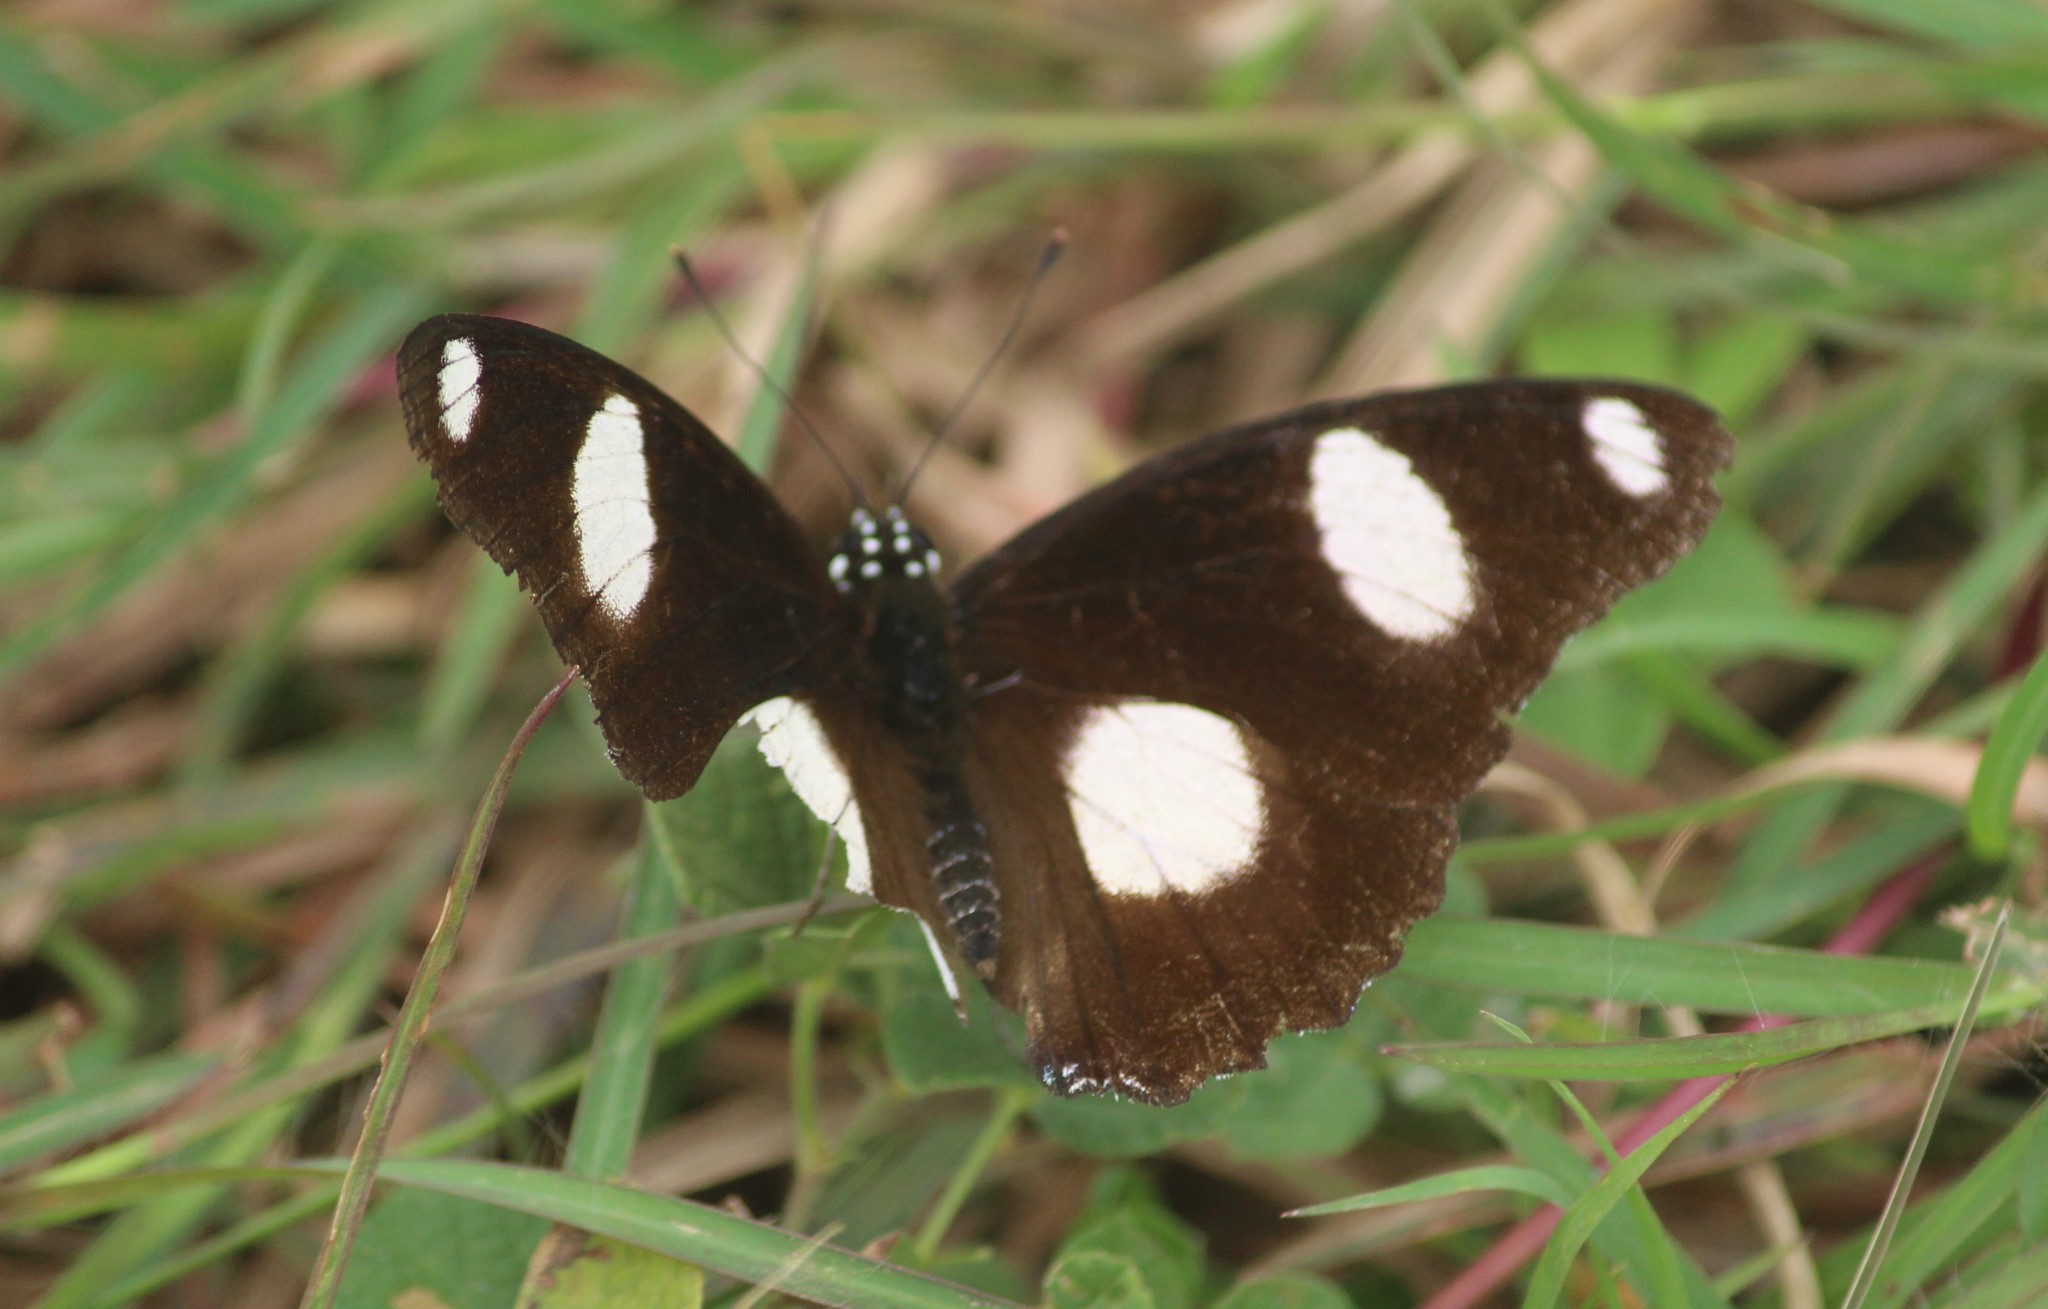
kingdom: Animalia
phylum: Arthropoda
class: Insecta
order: Lepidoptera
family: Nymphalidae
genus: Hypolimnas
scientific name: Hypolimnas misippus
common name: False plain tiger
